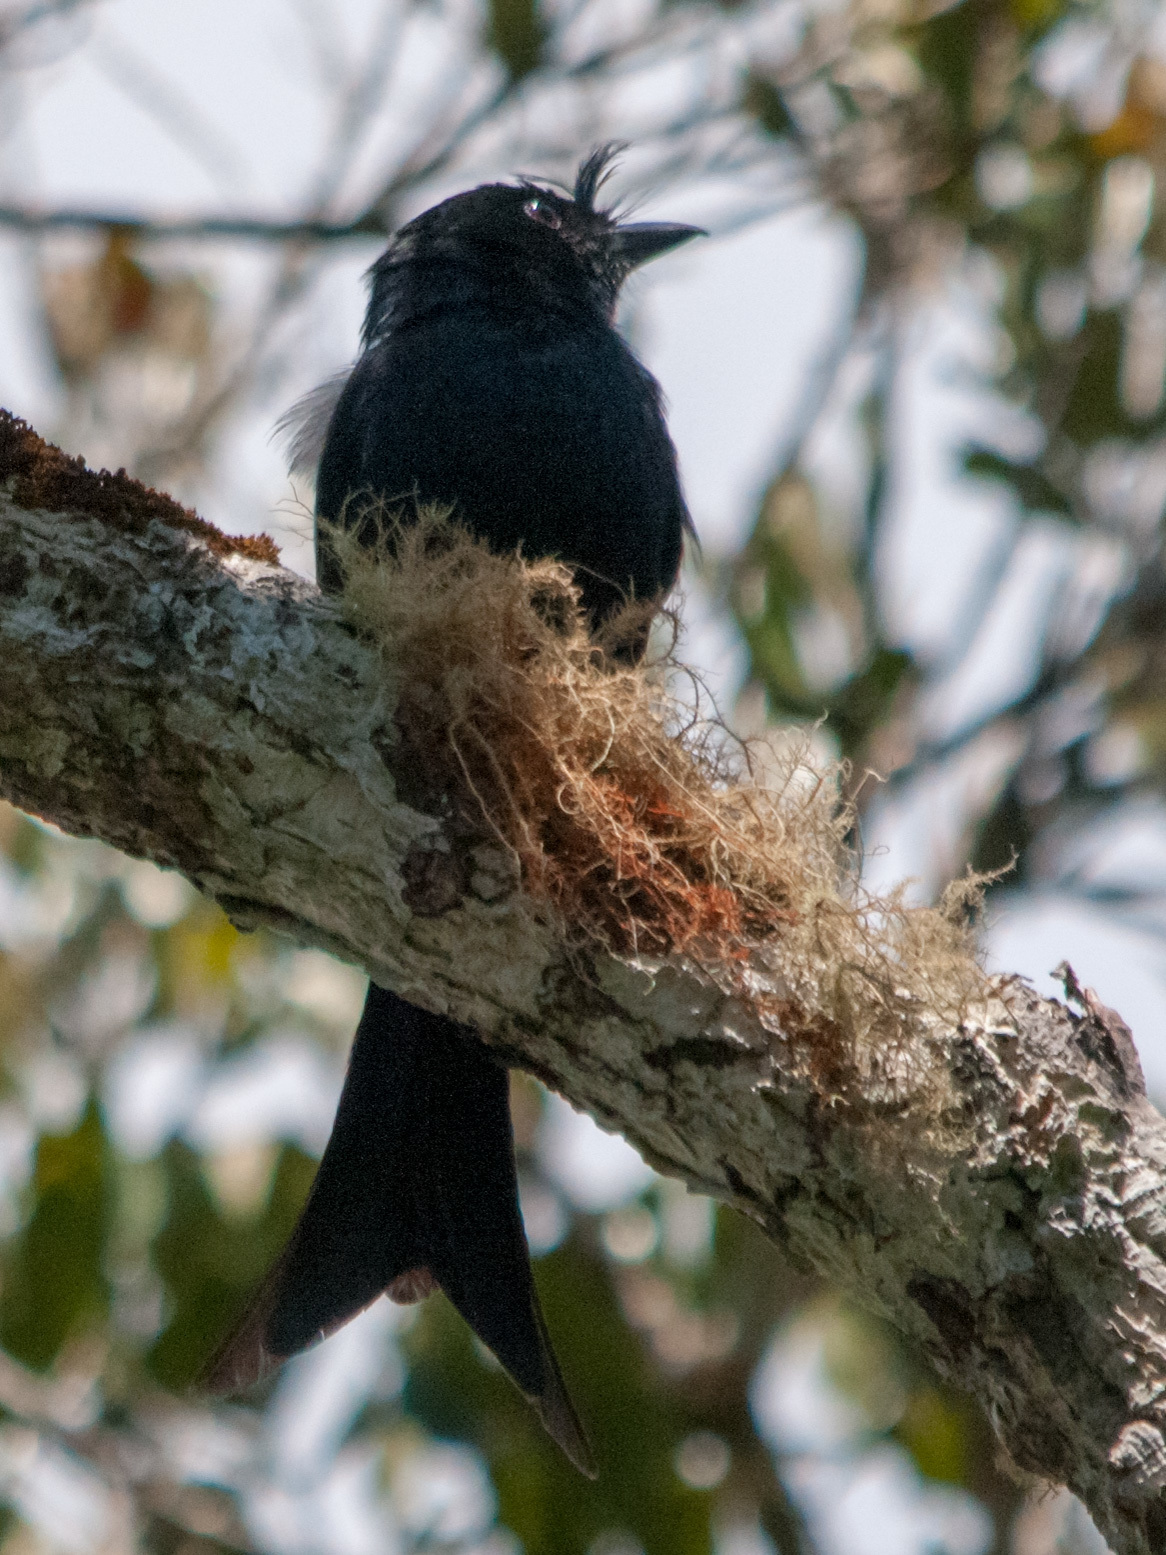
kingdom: Animalia
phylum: Chordata
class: Aves
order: Passeriformes
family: Dicruridae
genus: Dicrurus
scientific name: Dicrurus forficatus
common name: Crested drongo
